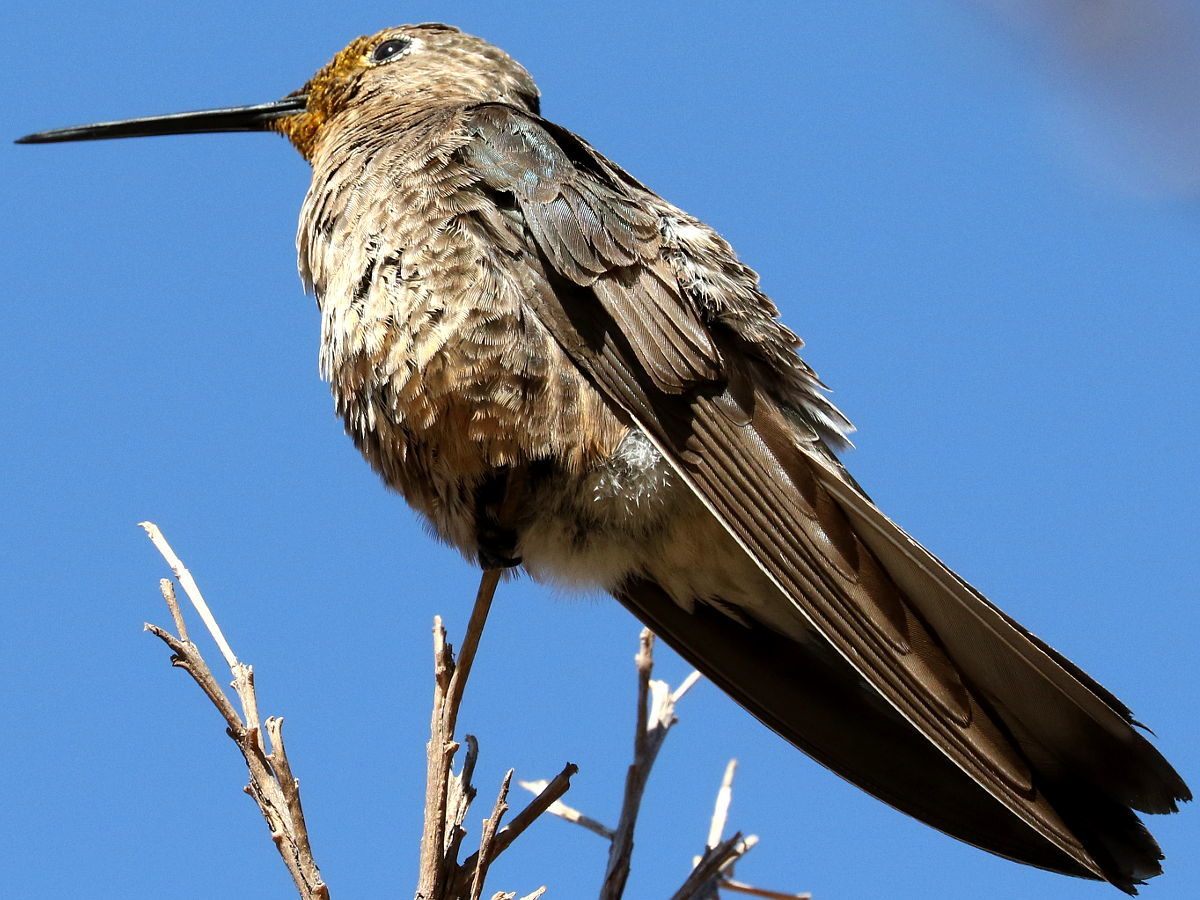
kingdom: Animalia
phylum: Chordata
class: Aves
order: Apodiformes
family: Trochilidae
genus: Patagona
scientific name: Patagona gigas
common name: Giant hummingbird
